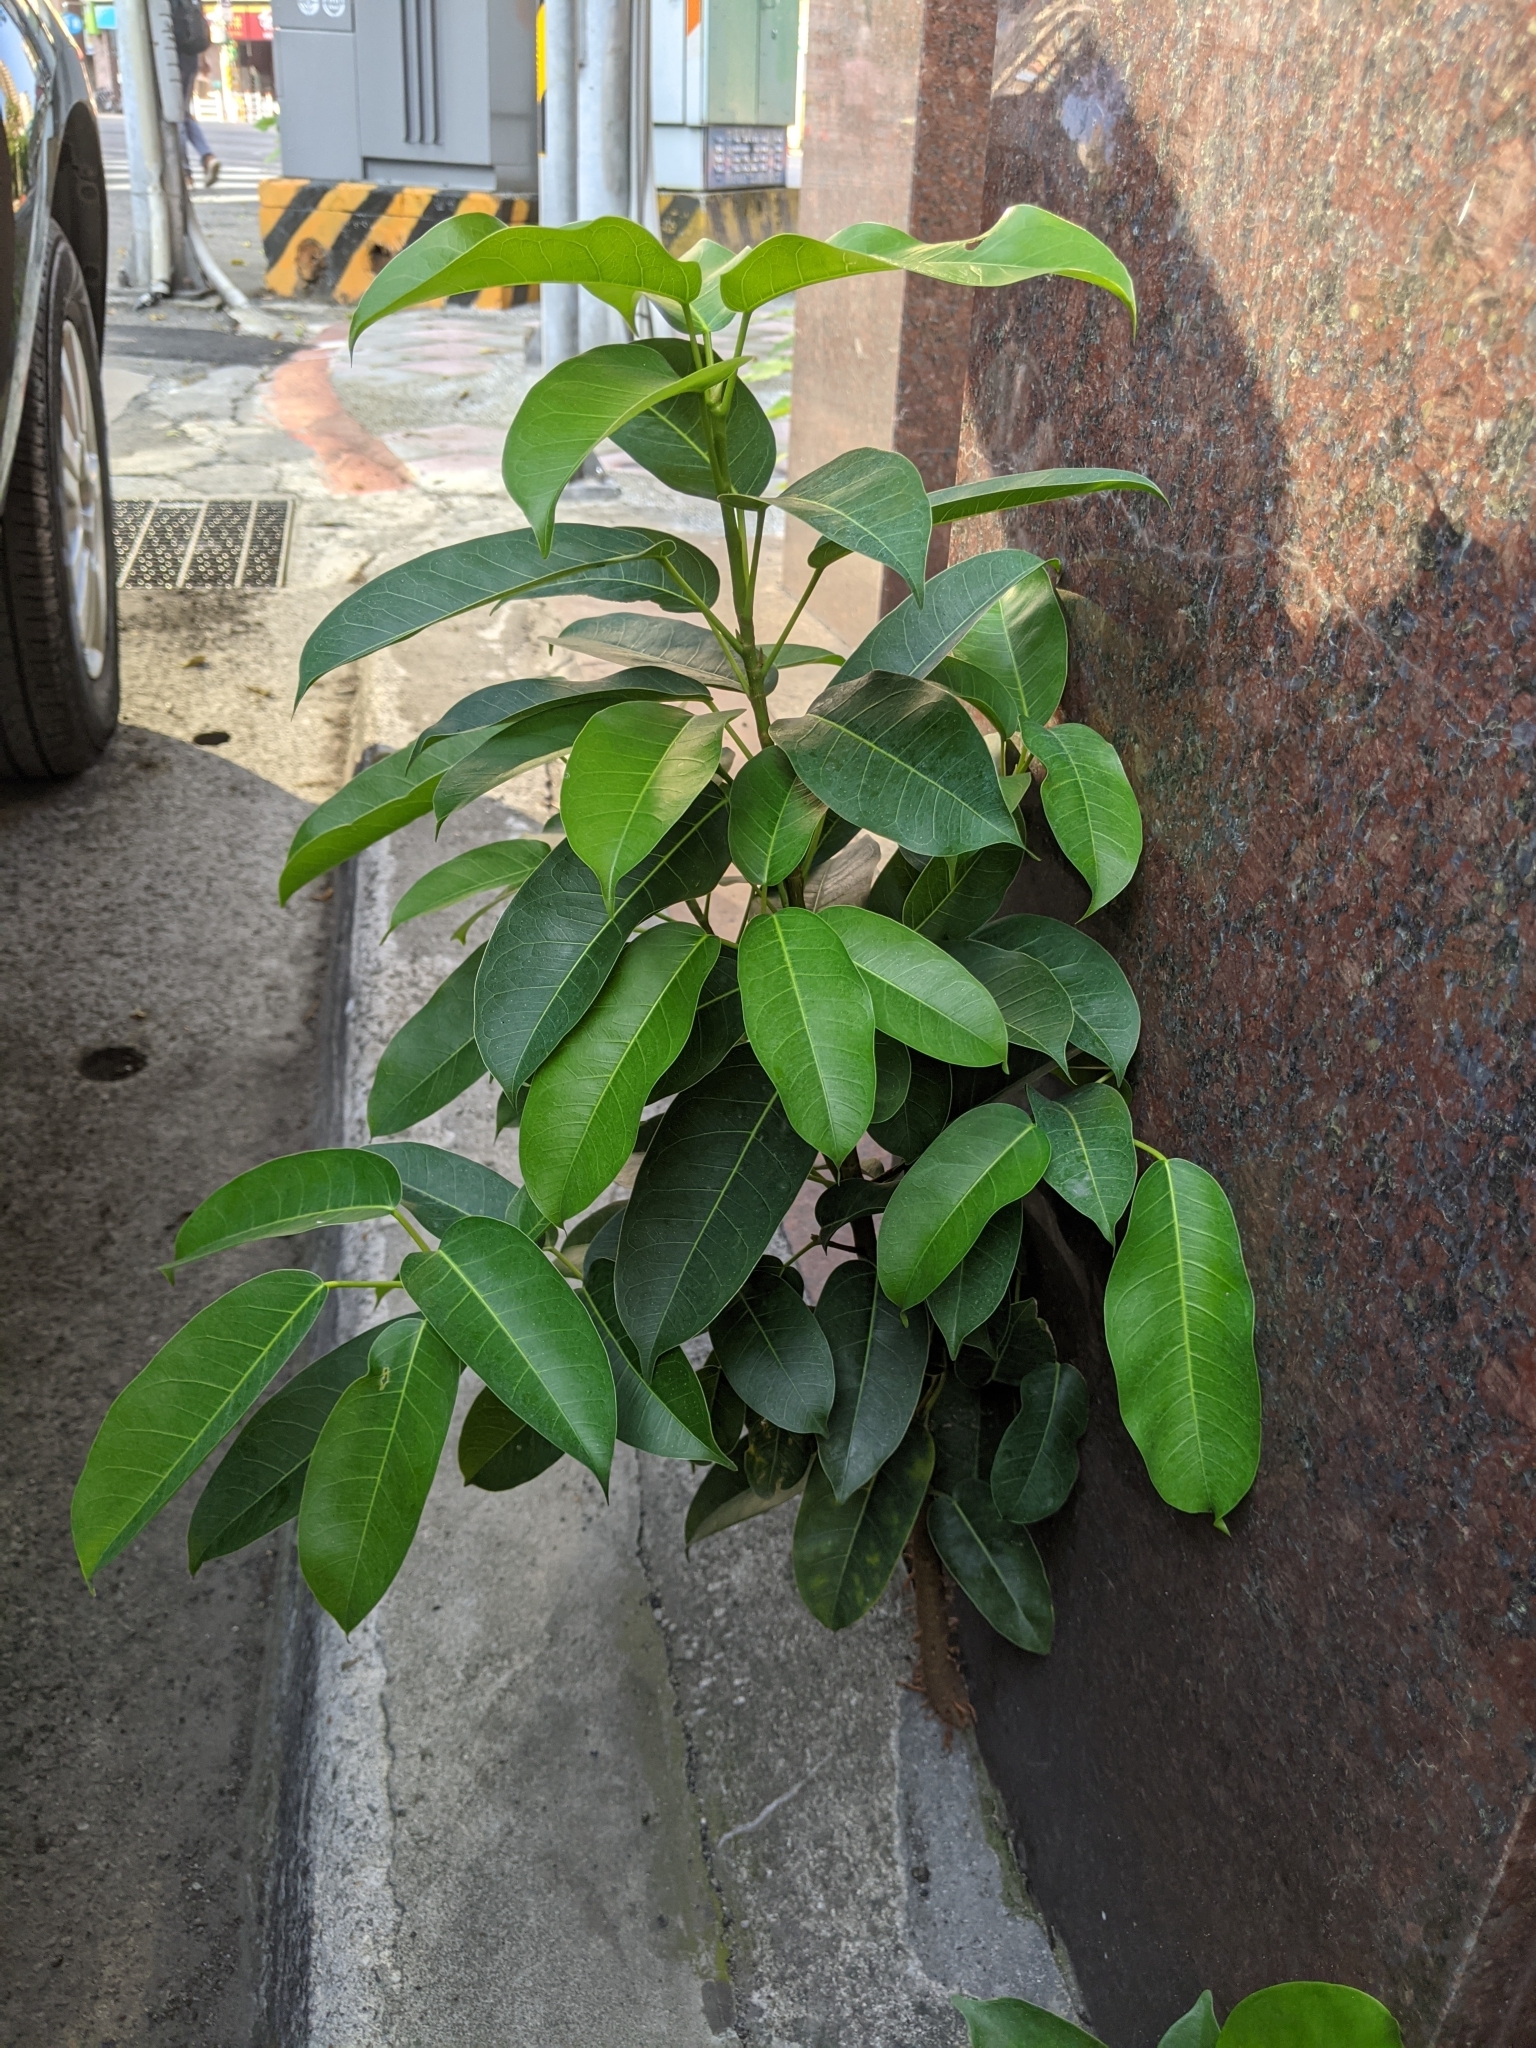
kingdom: Plantae
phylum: Tracheophyta
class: Magnoliopsida
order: Rosales
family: Moraceae
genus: Ficus
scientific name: Ficus subpisocarpa
